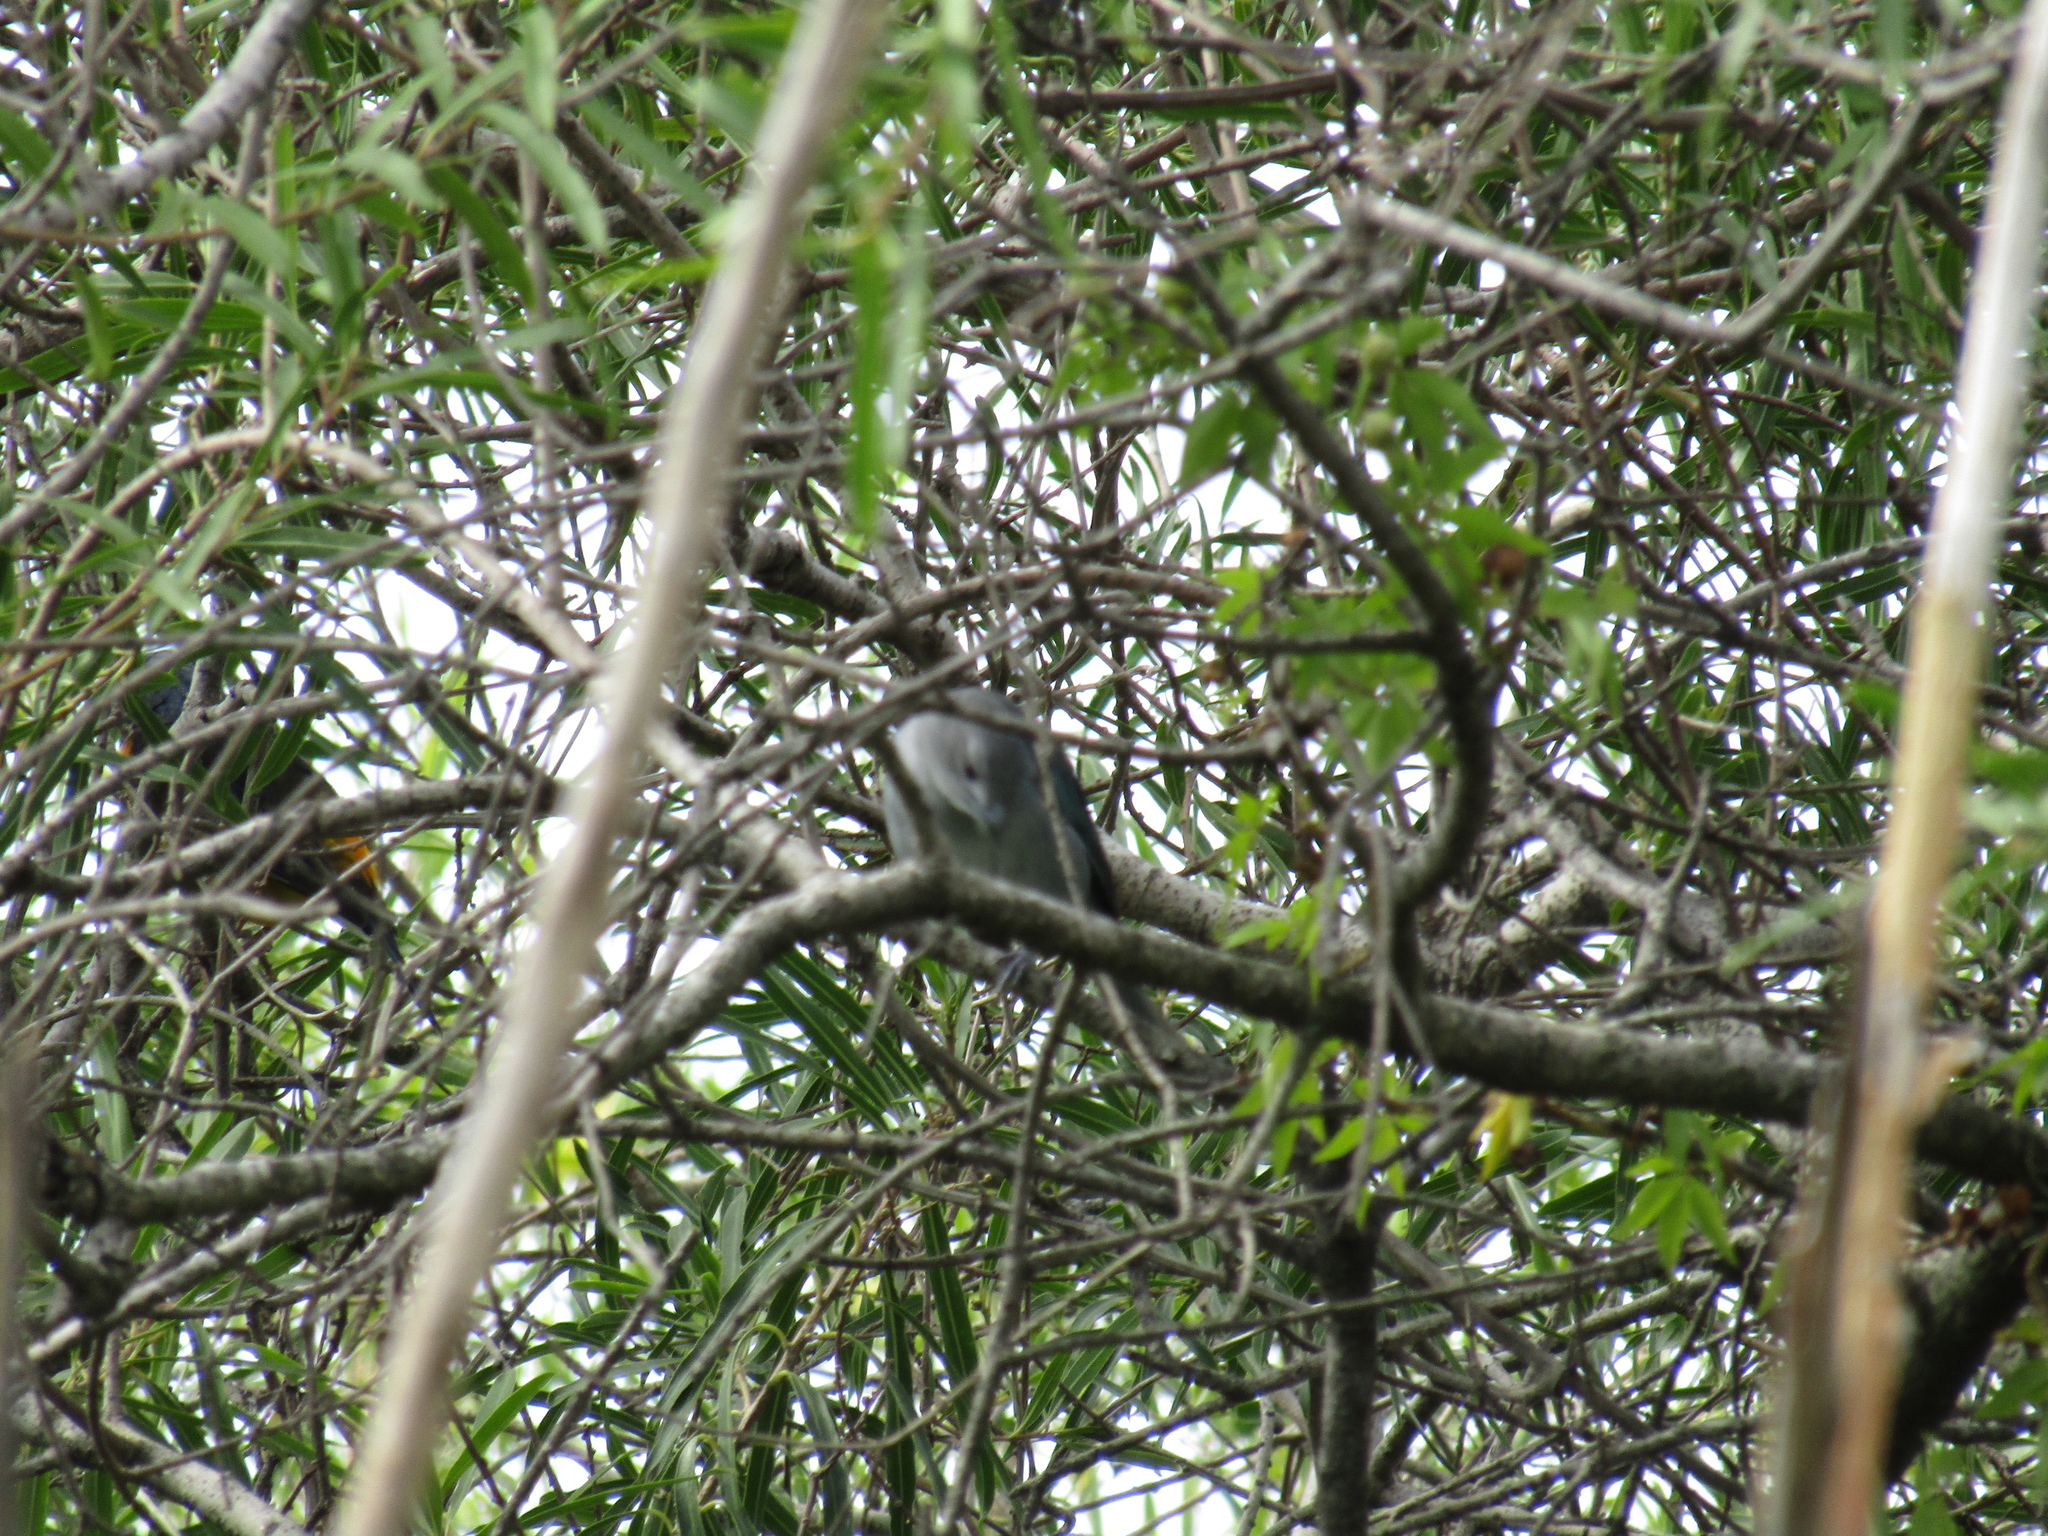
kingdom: Animalia
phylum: Chordata
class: Aves
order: Passeriformes
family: Thraupidae
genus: Thraupis
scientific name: Thraupis sayaca
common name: Sayaca tanager
